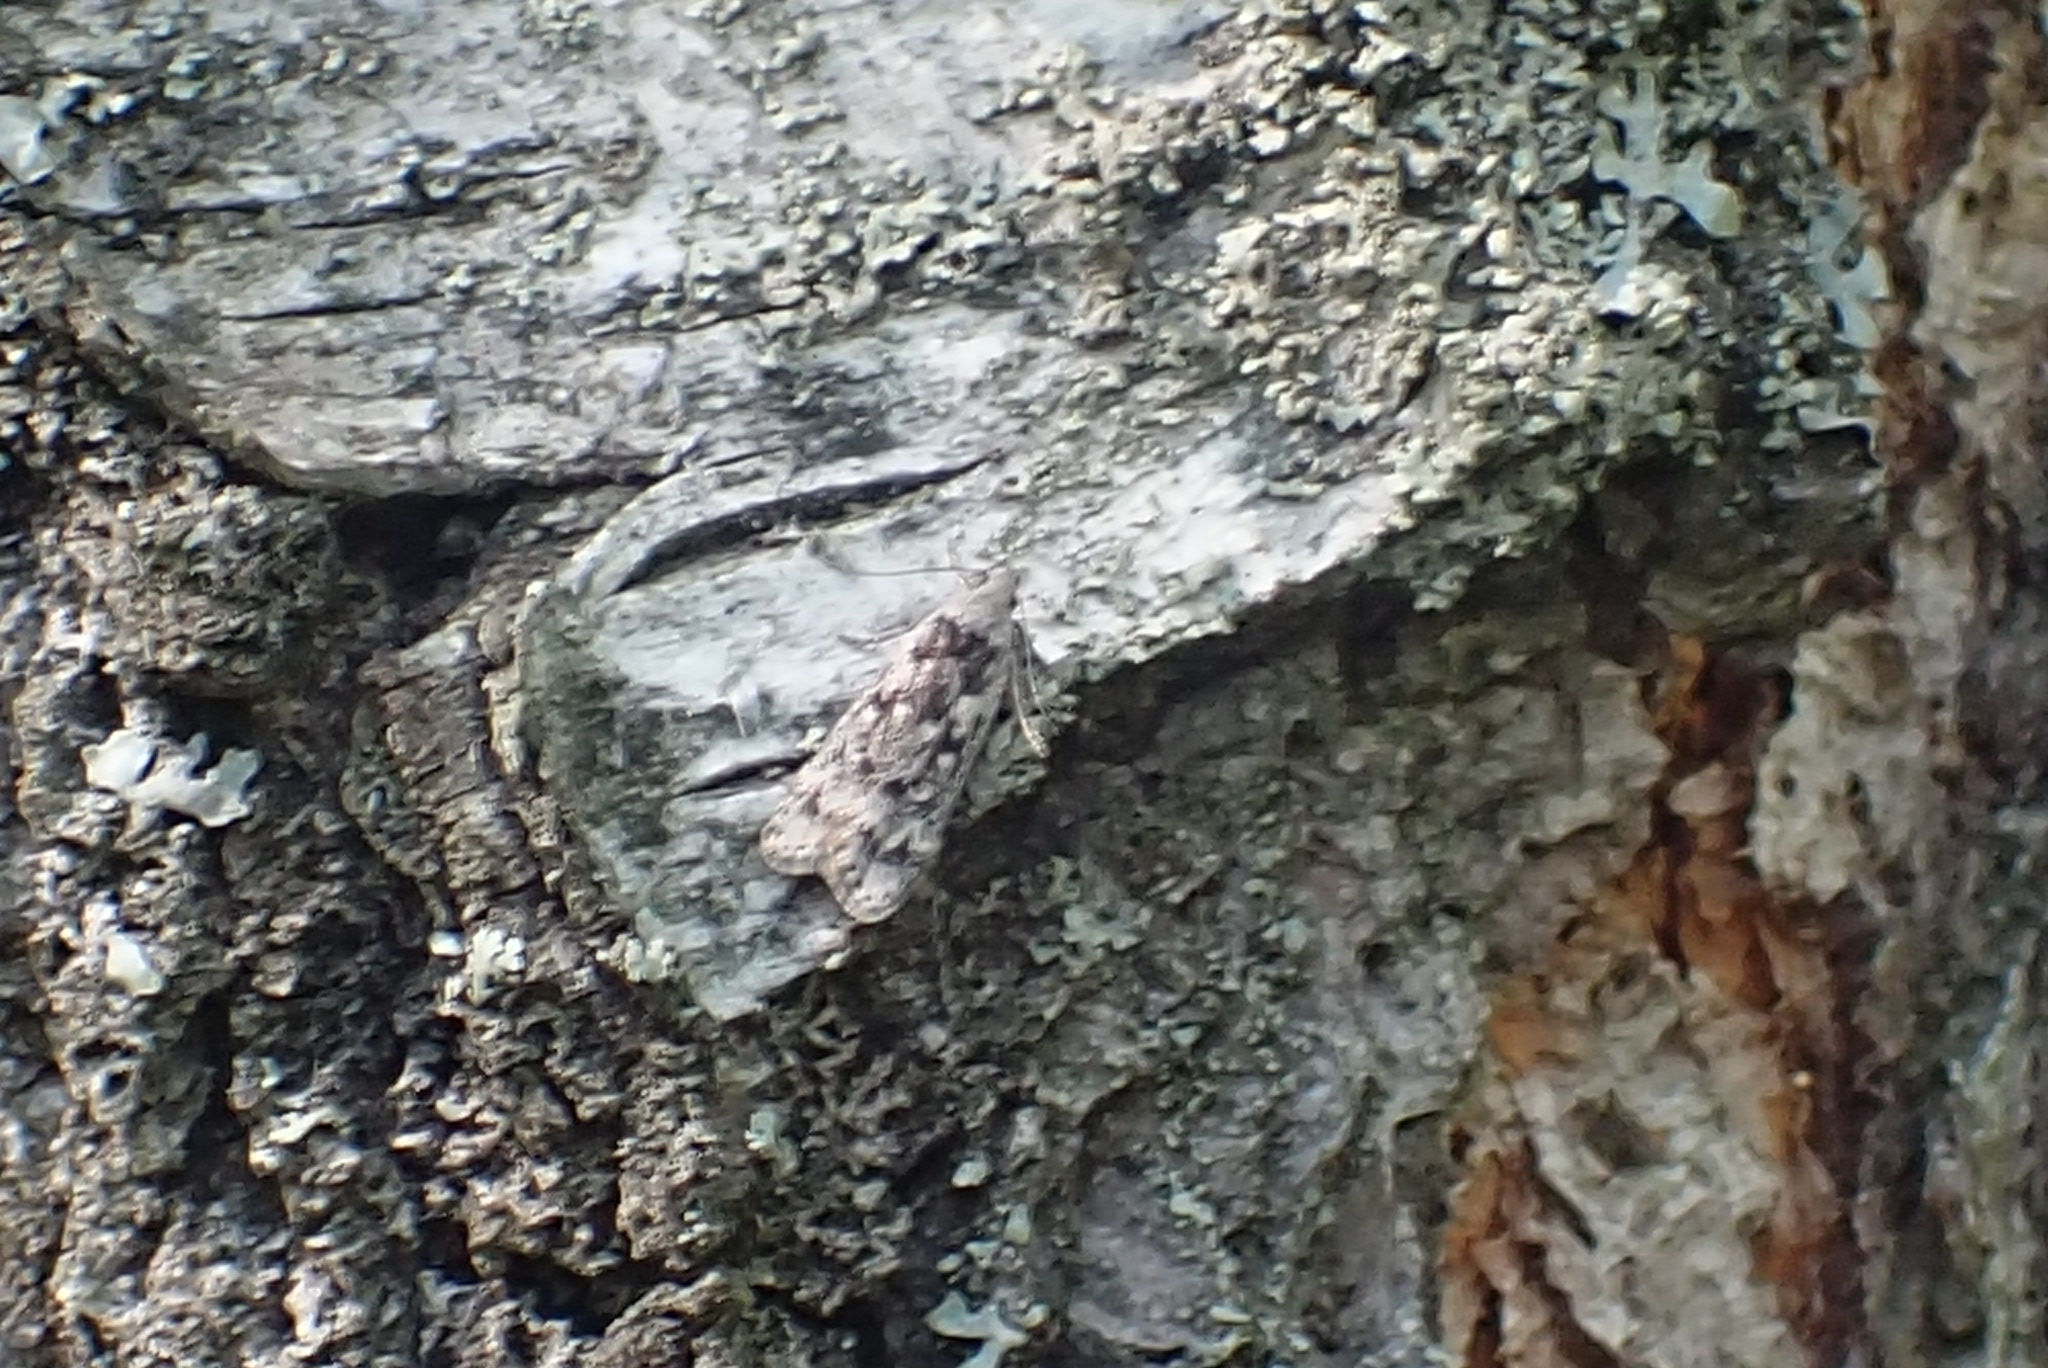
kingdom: Animalia
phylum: Arthropoda
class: Insecta
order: Lepidoptera
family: Gelechiidae
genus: Anacampsis
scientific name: Anacampsis blattariella
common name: Birch sober
